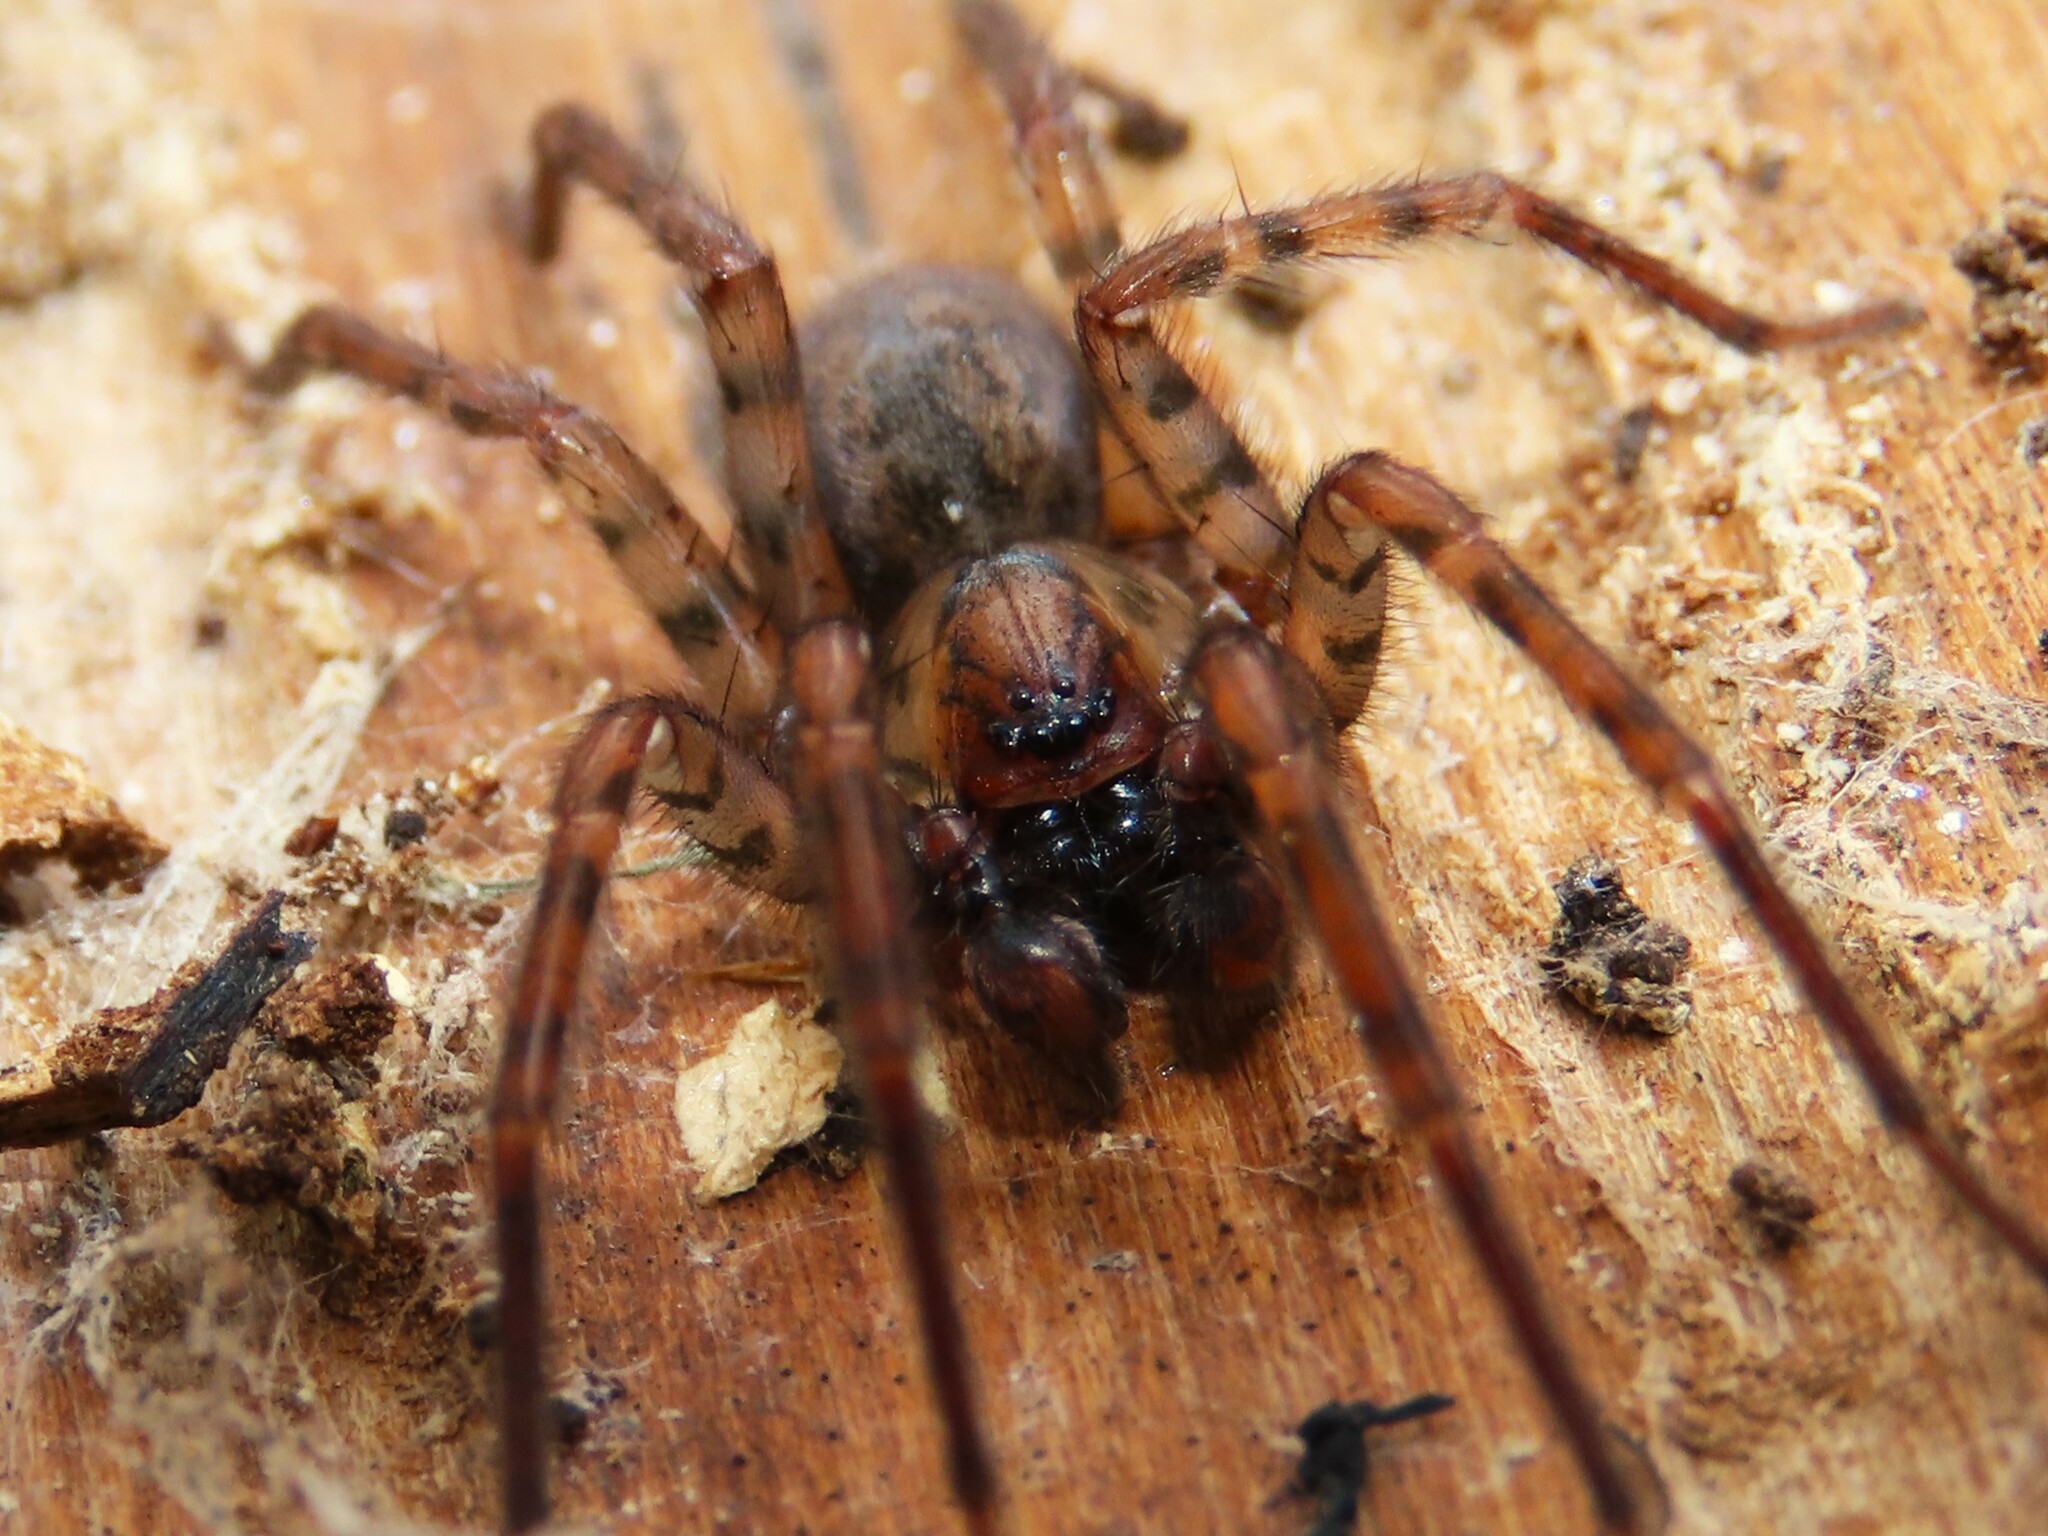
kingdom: Animalia
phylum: Arthropoda
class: Arachnida
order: Araneae
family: Agelenidae
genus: Coras
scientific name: Coras
